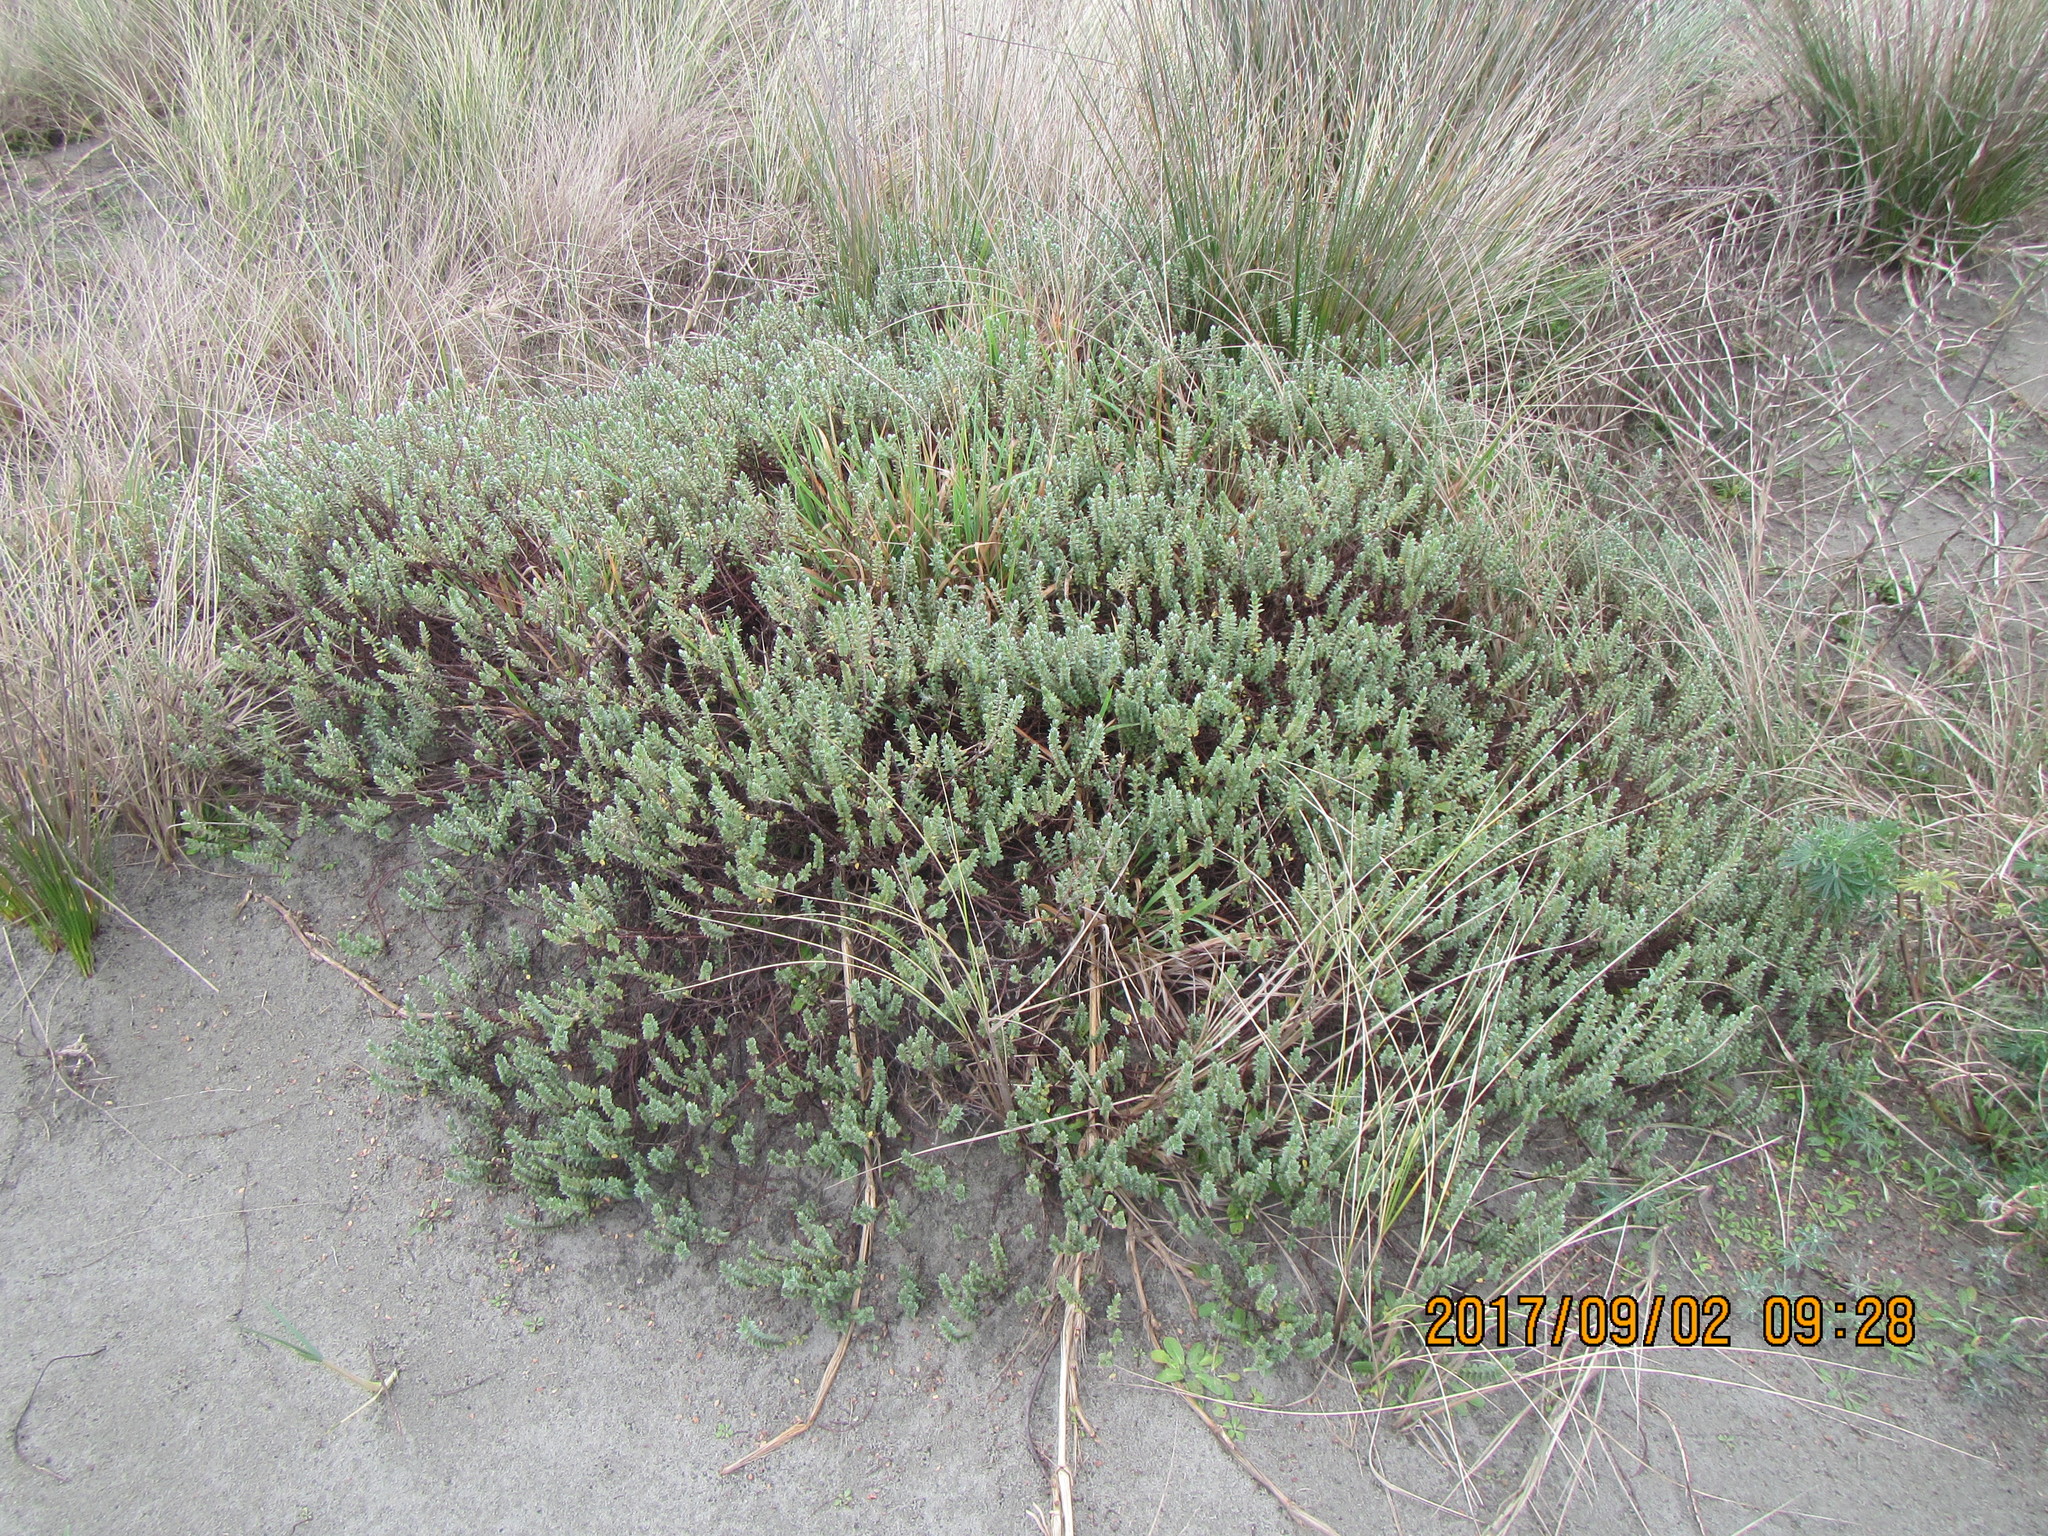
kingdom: Plantae
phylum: Tracheophyta
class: Magnoliopsida
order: Malvales
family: Thymelaeaceae
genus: Pimelea
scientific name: Pimelea villosa
